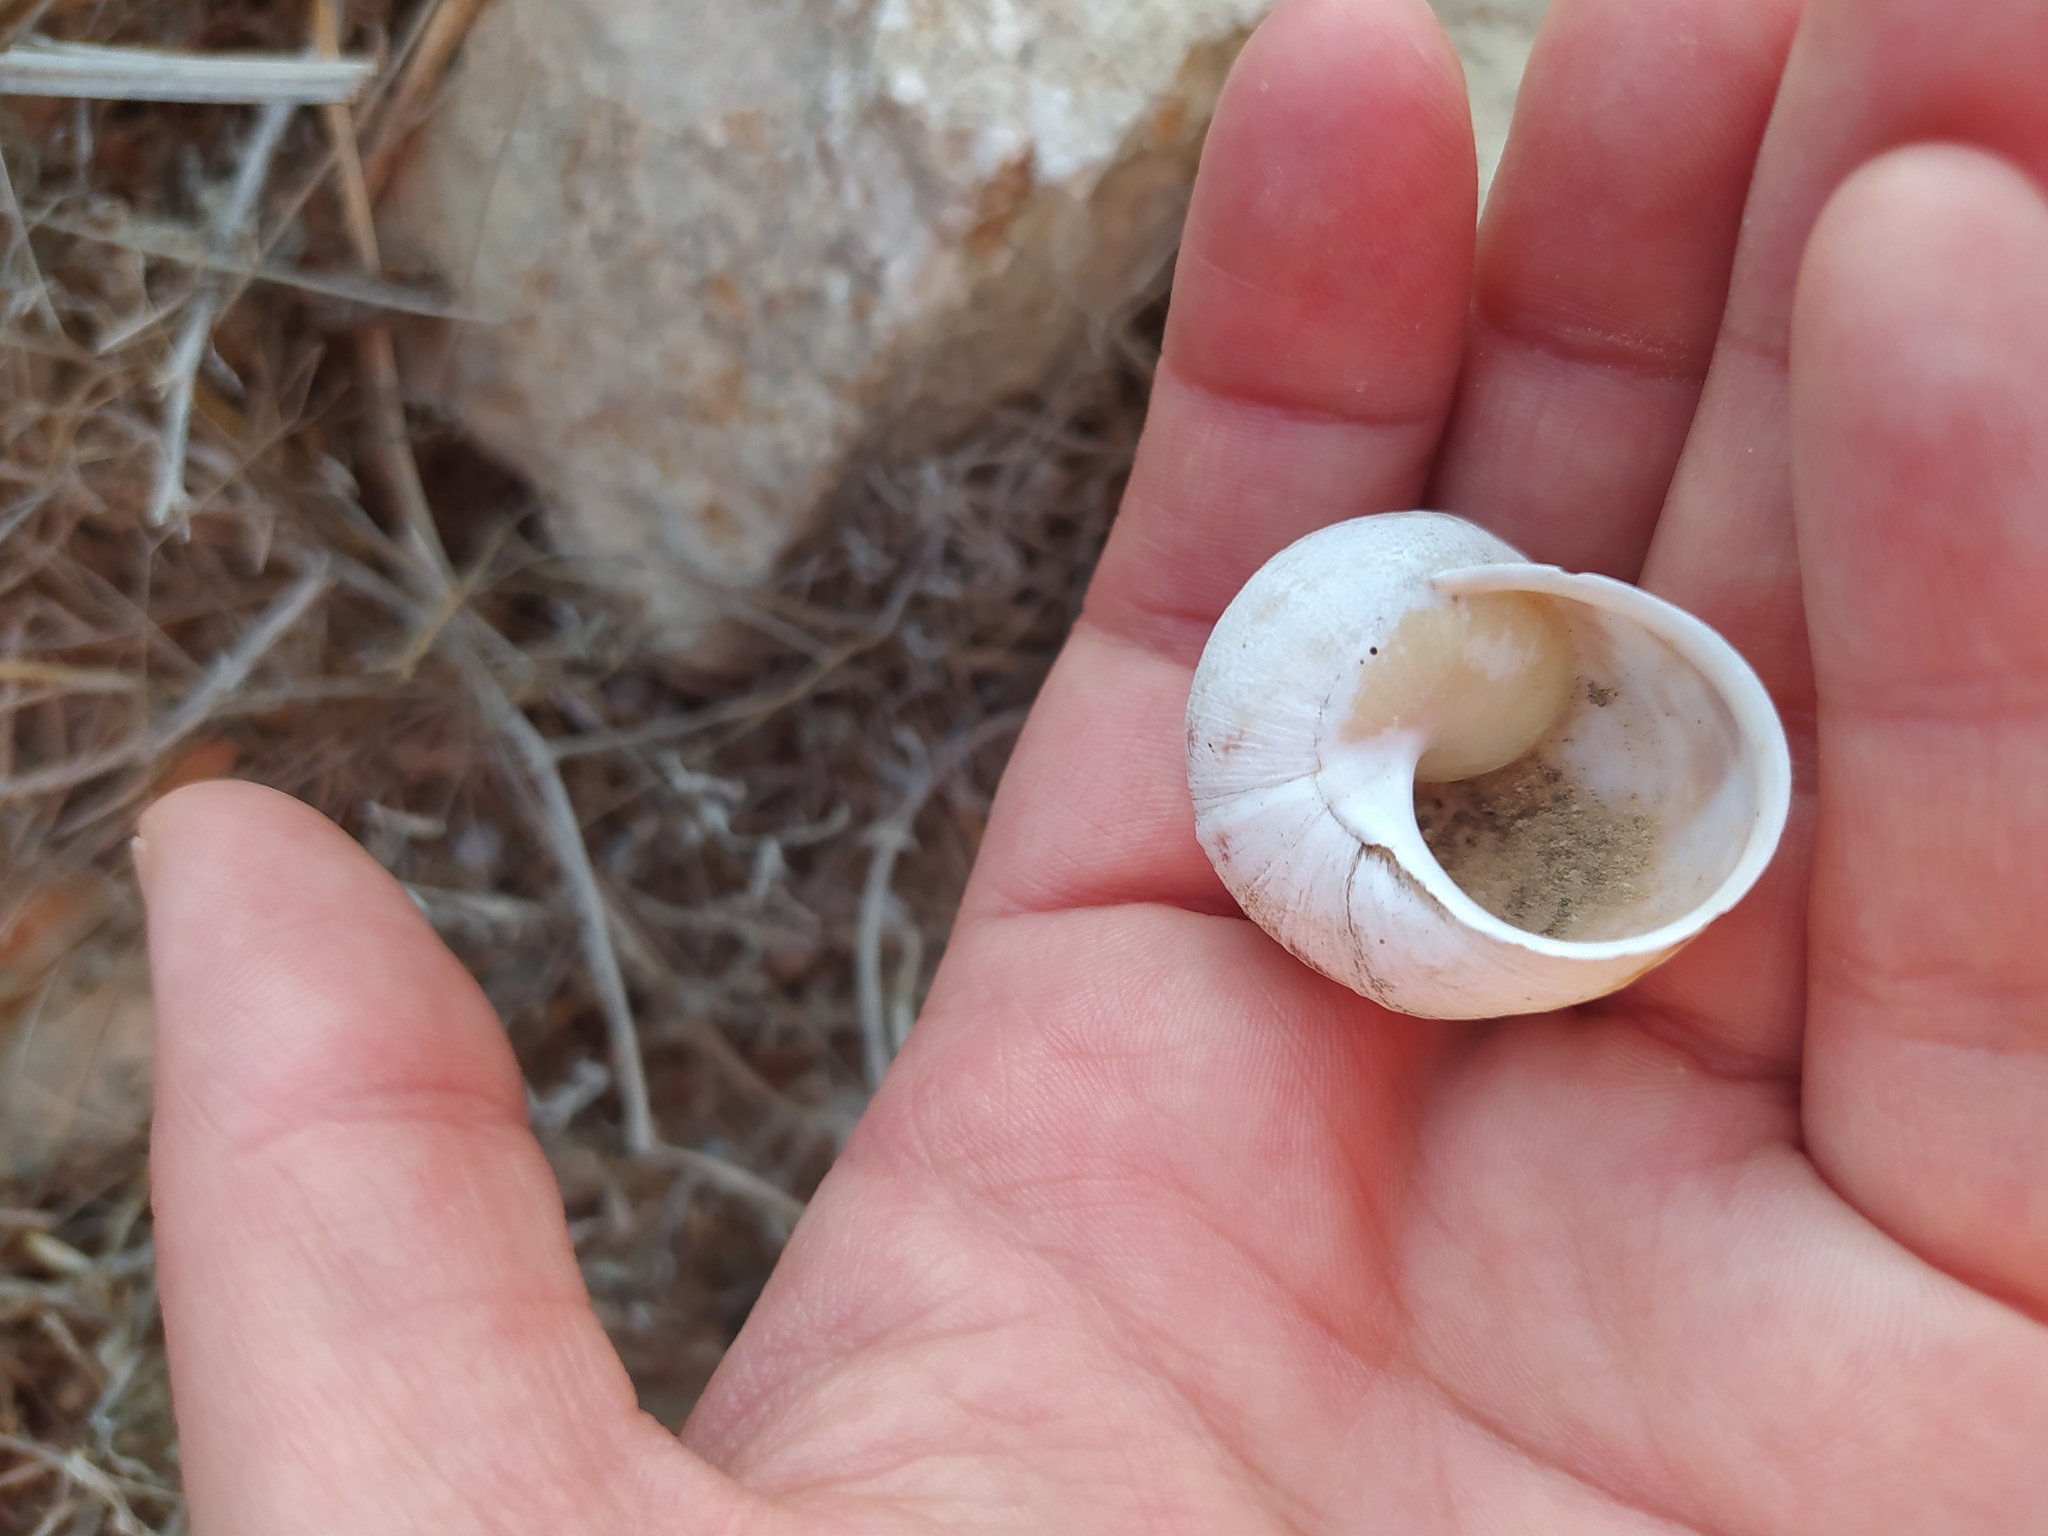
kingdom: Animalia
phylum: Mollusca
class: Gastropoda
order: Stylommatophora
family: Helicidae
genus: Cornu
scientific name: Cornu aspersum
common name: Brown garden snail
